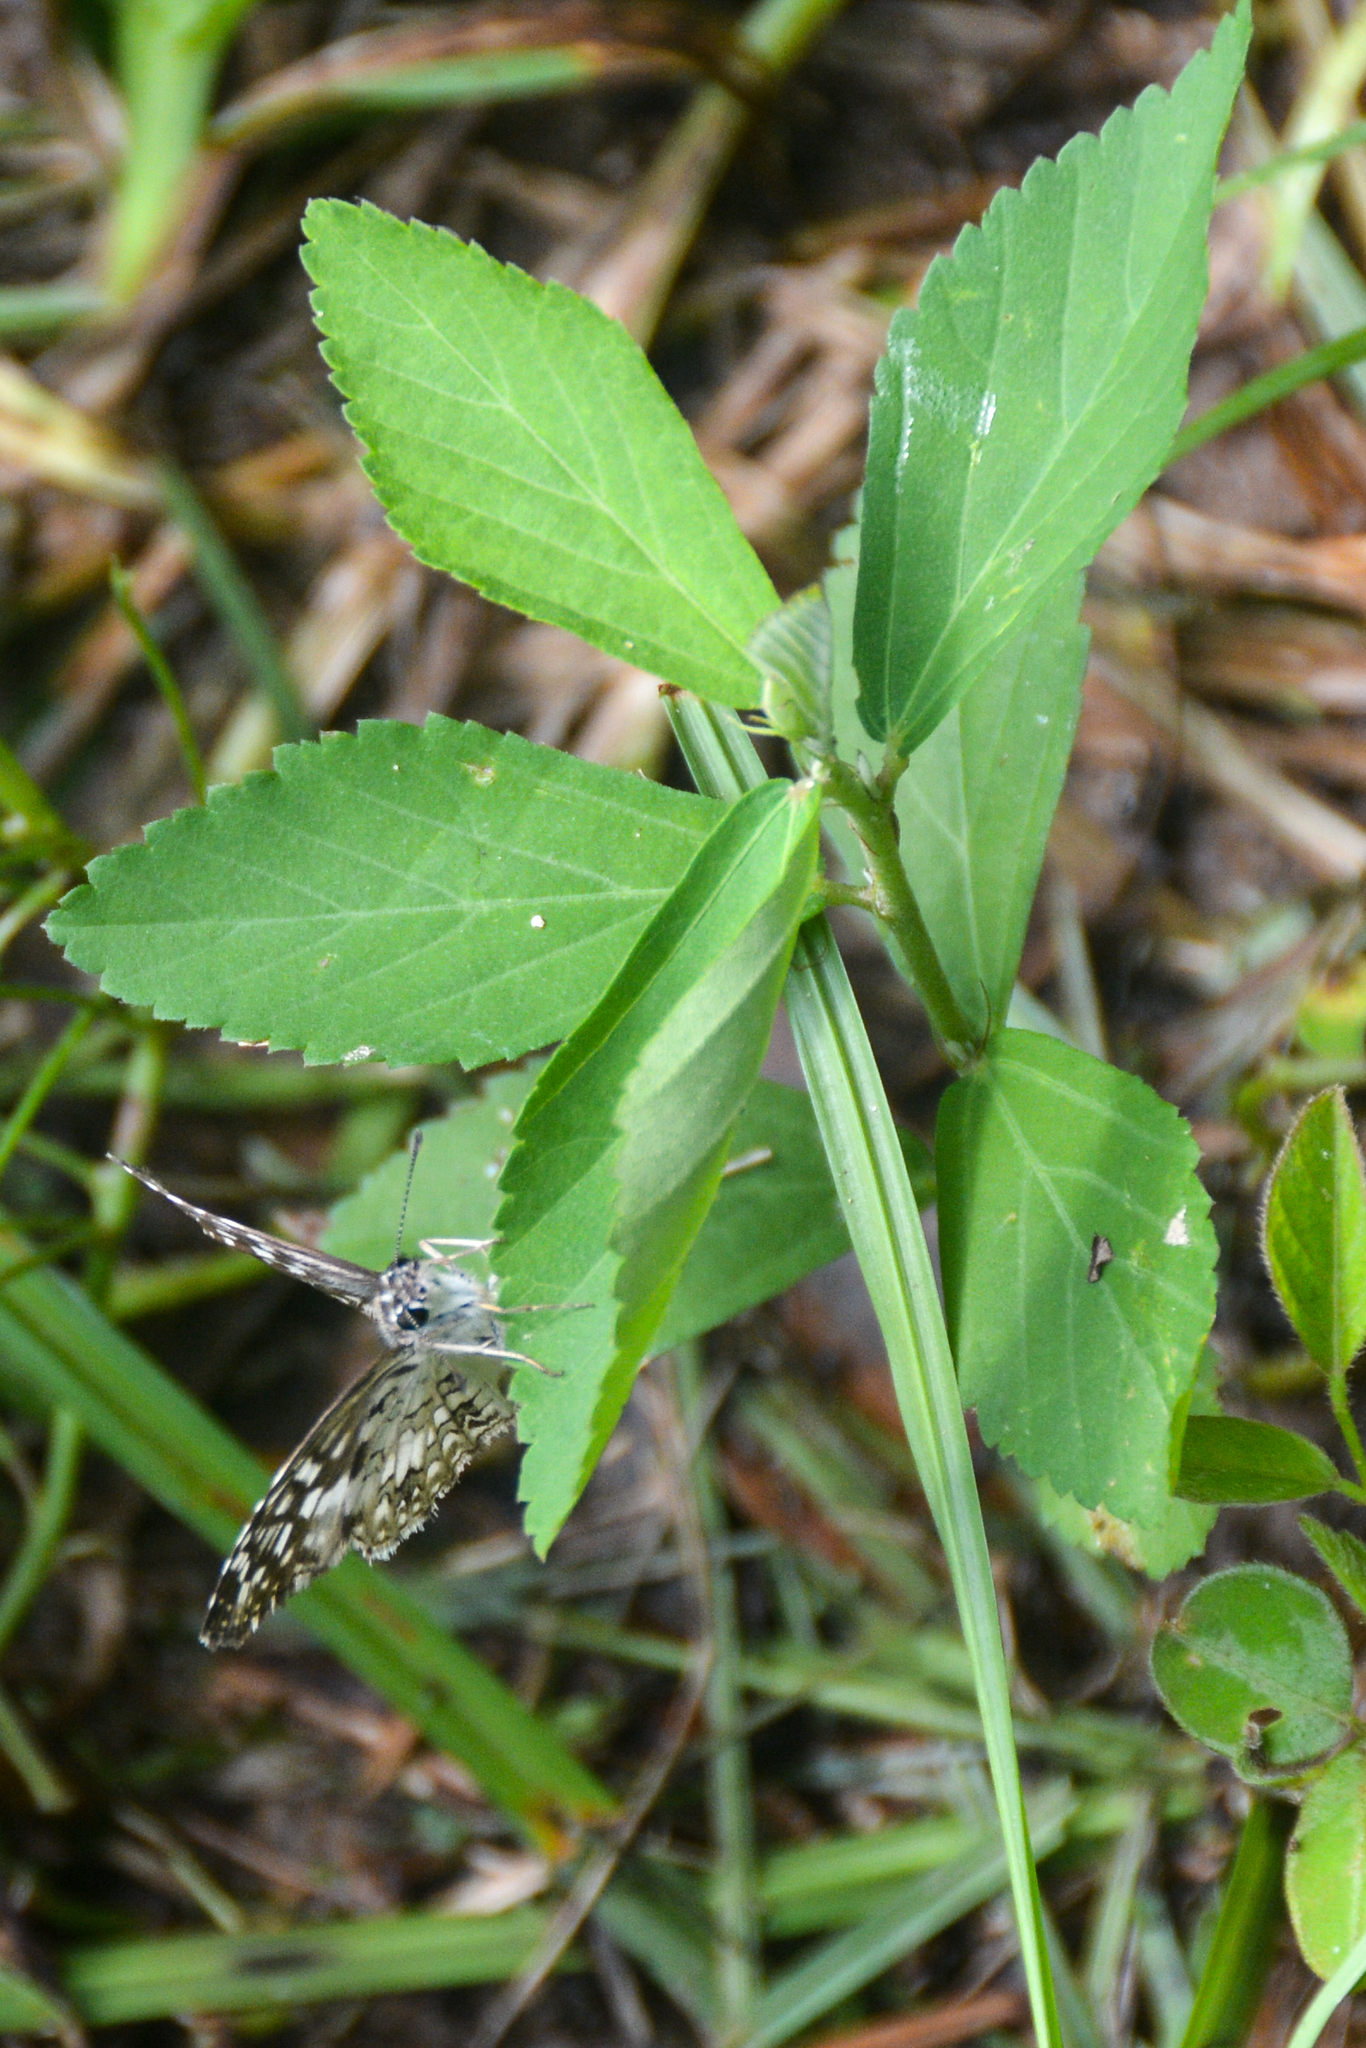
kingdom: Animalia
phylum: Arthropoda
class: Insecta
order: Lepidoptera
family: Hesperiidae
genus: Pyrgus
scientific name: Pyrgus oileus
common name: Tropical checkered-skipper
